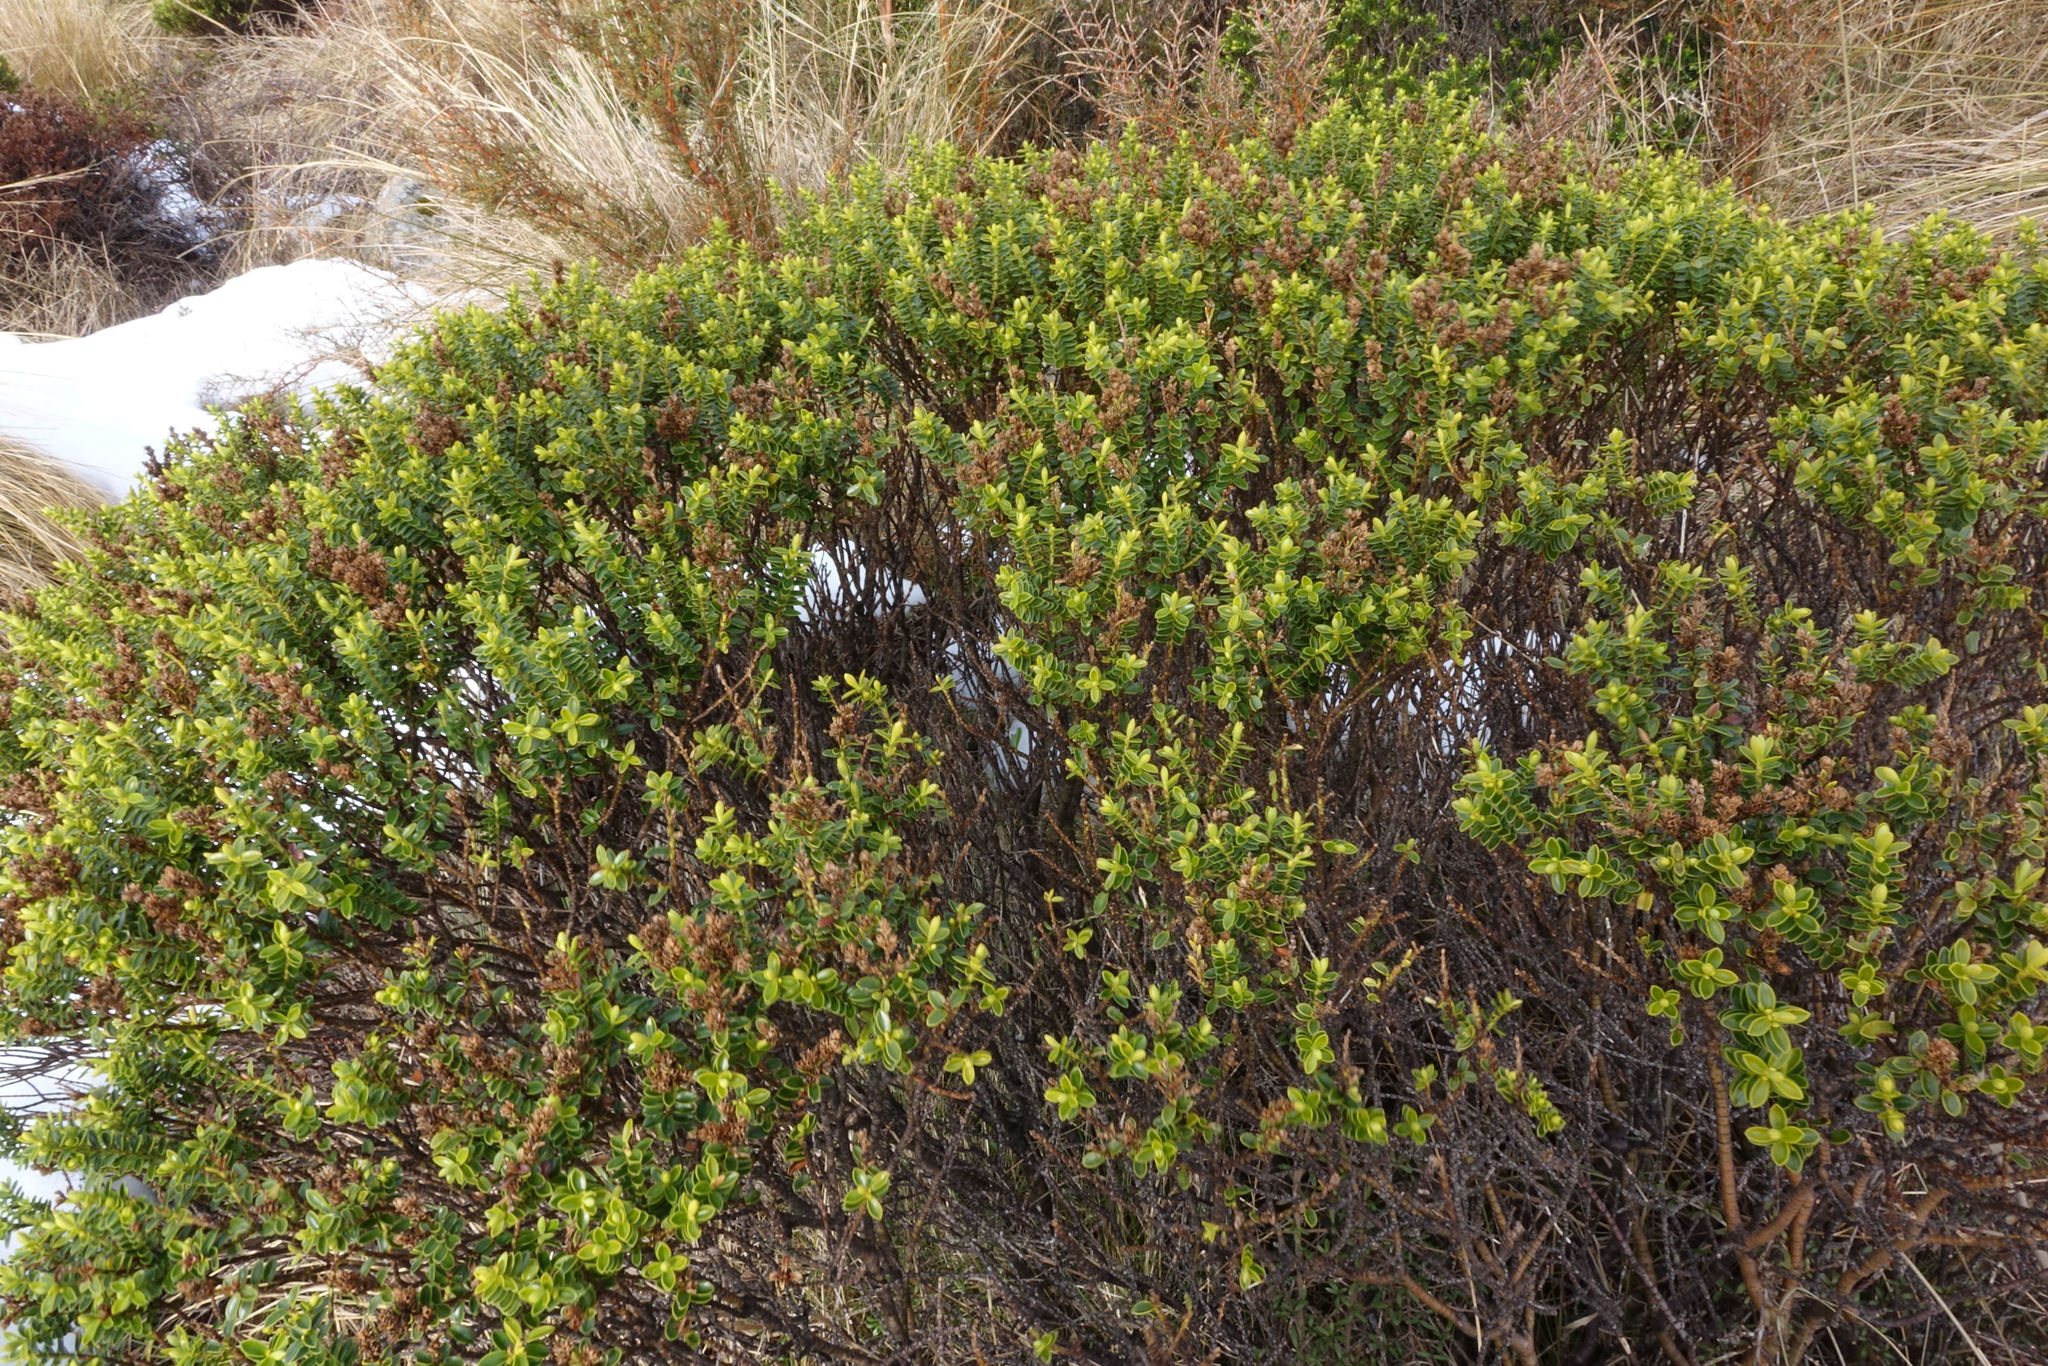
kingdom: Plantae
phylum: Tracheophyta
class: Magnoliopsida
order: Lamiales
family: Plantaginaceae
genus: Veronica
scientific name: Veronica odora
